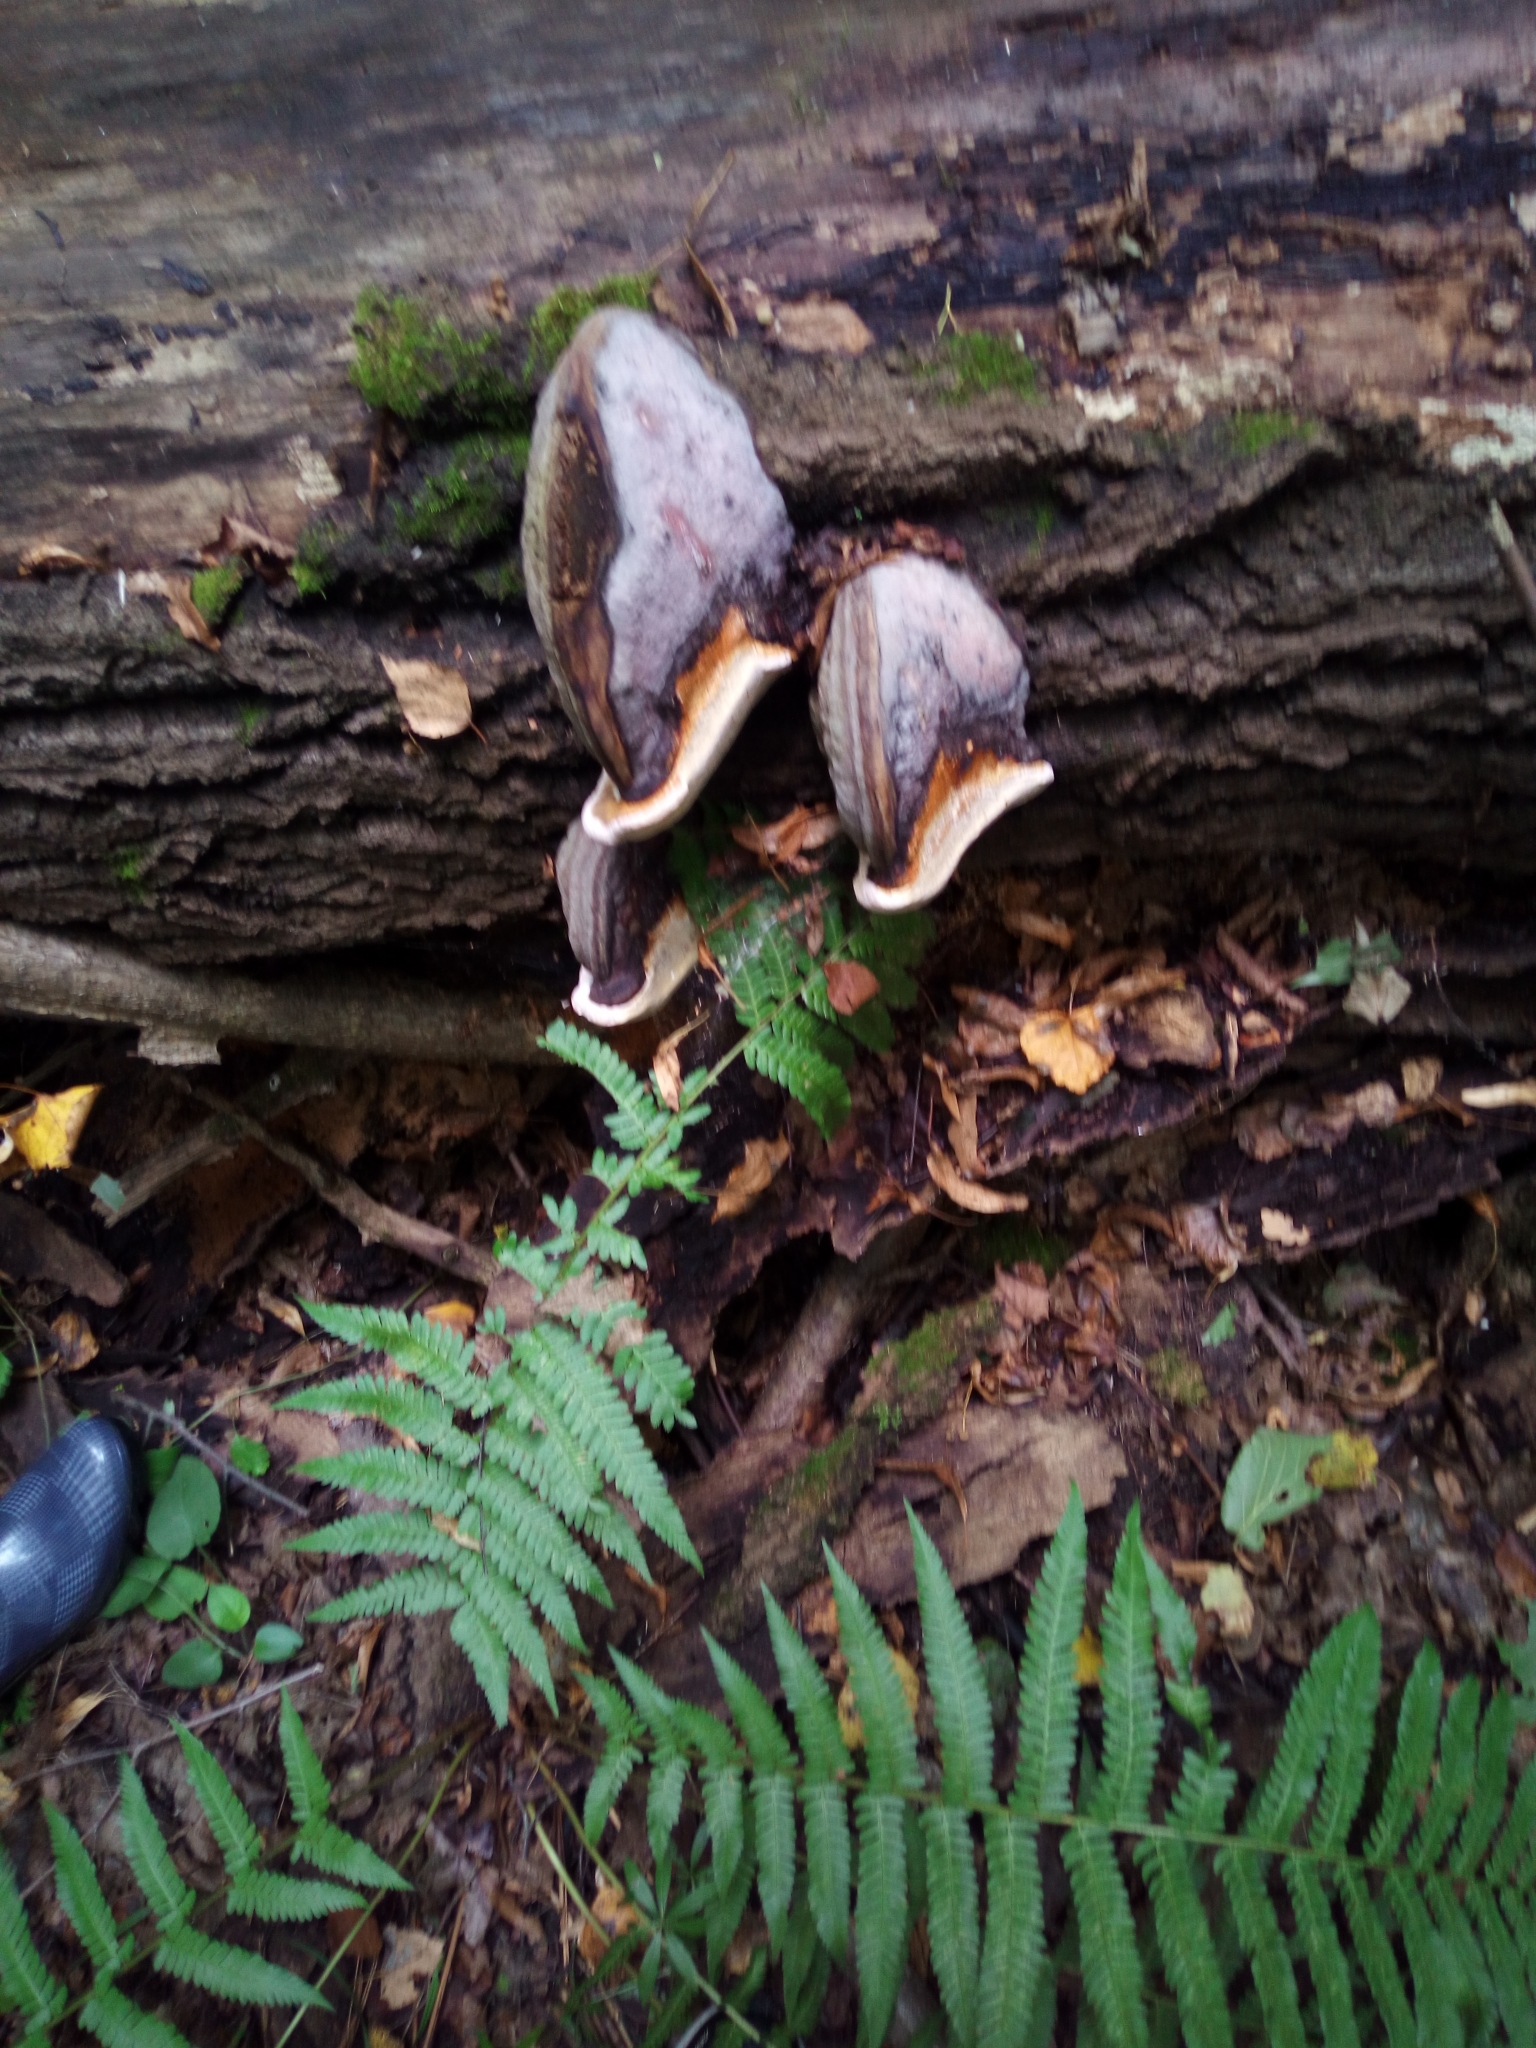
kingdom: Fungi
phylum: Basidiomycota
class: Agaricomycetes
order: Polyporales
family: Fomitopsidaceae
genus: Fomitopsis
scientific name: Fomitopsis pinicola
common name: Red-belted bracket
